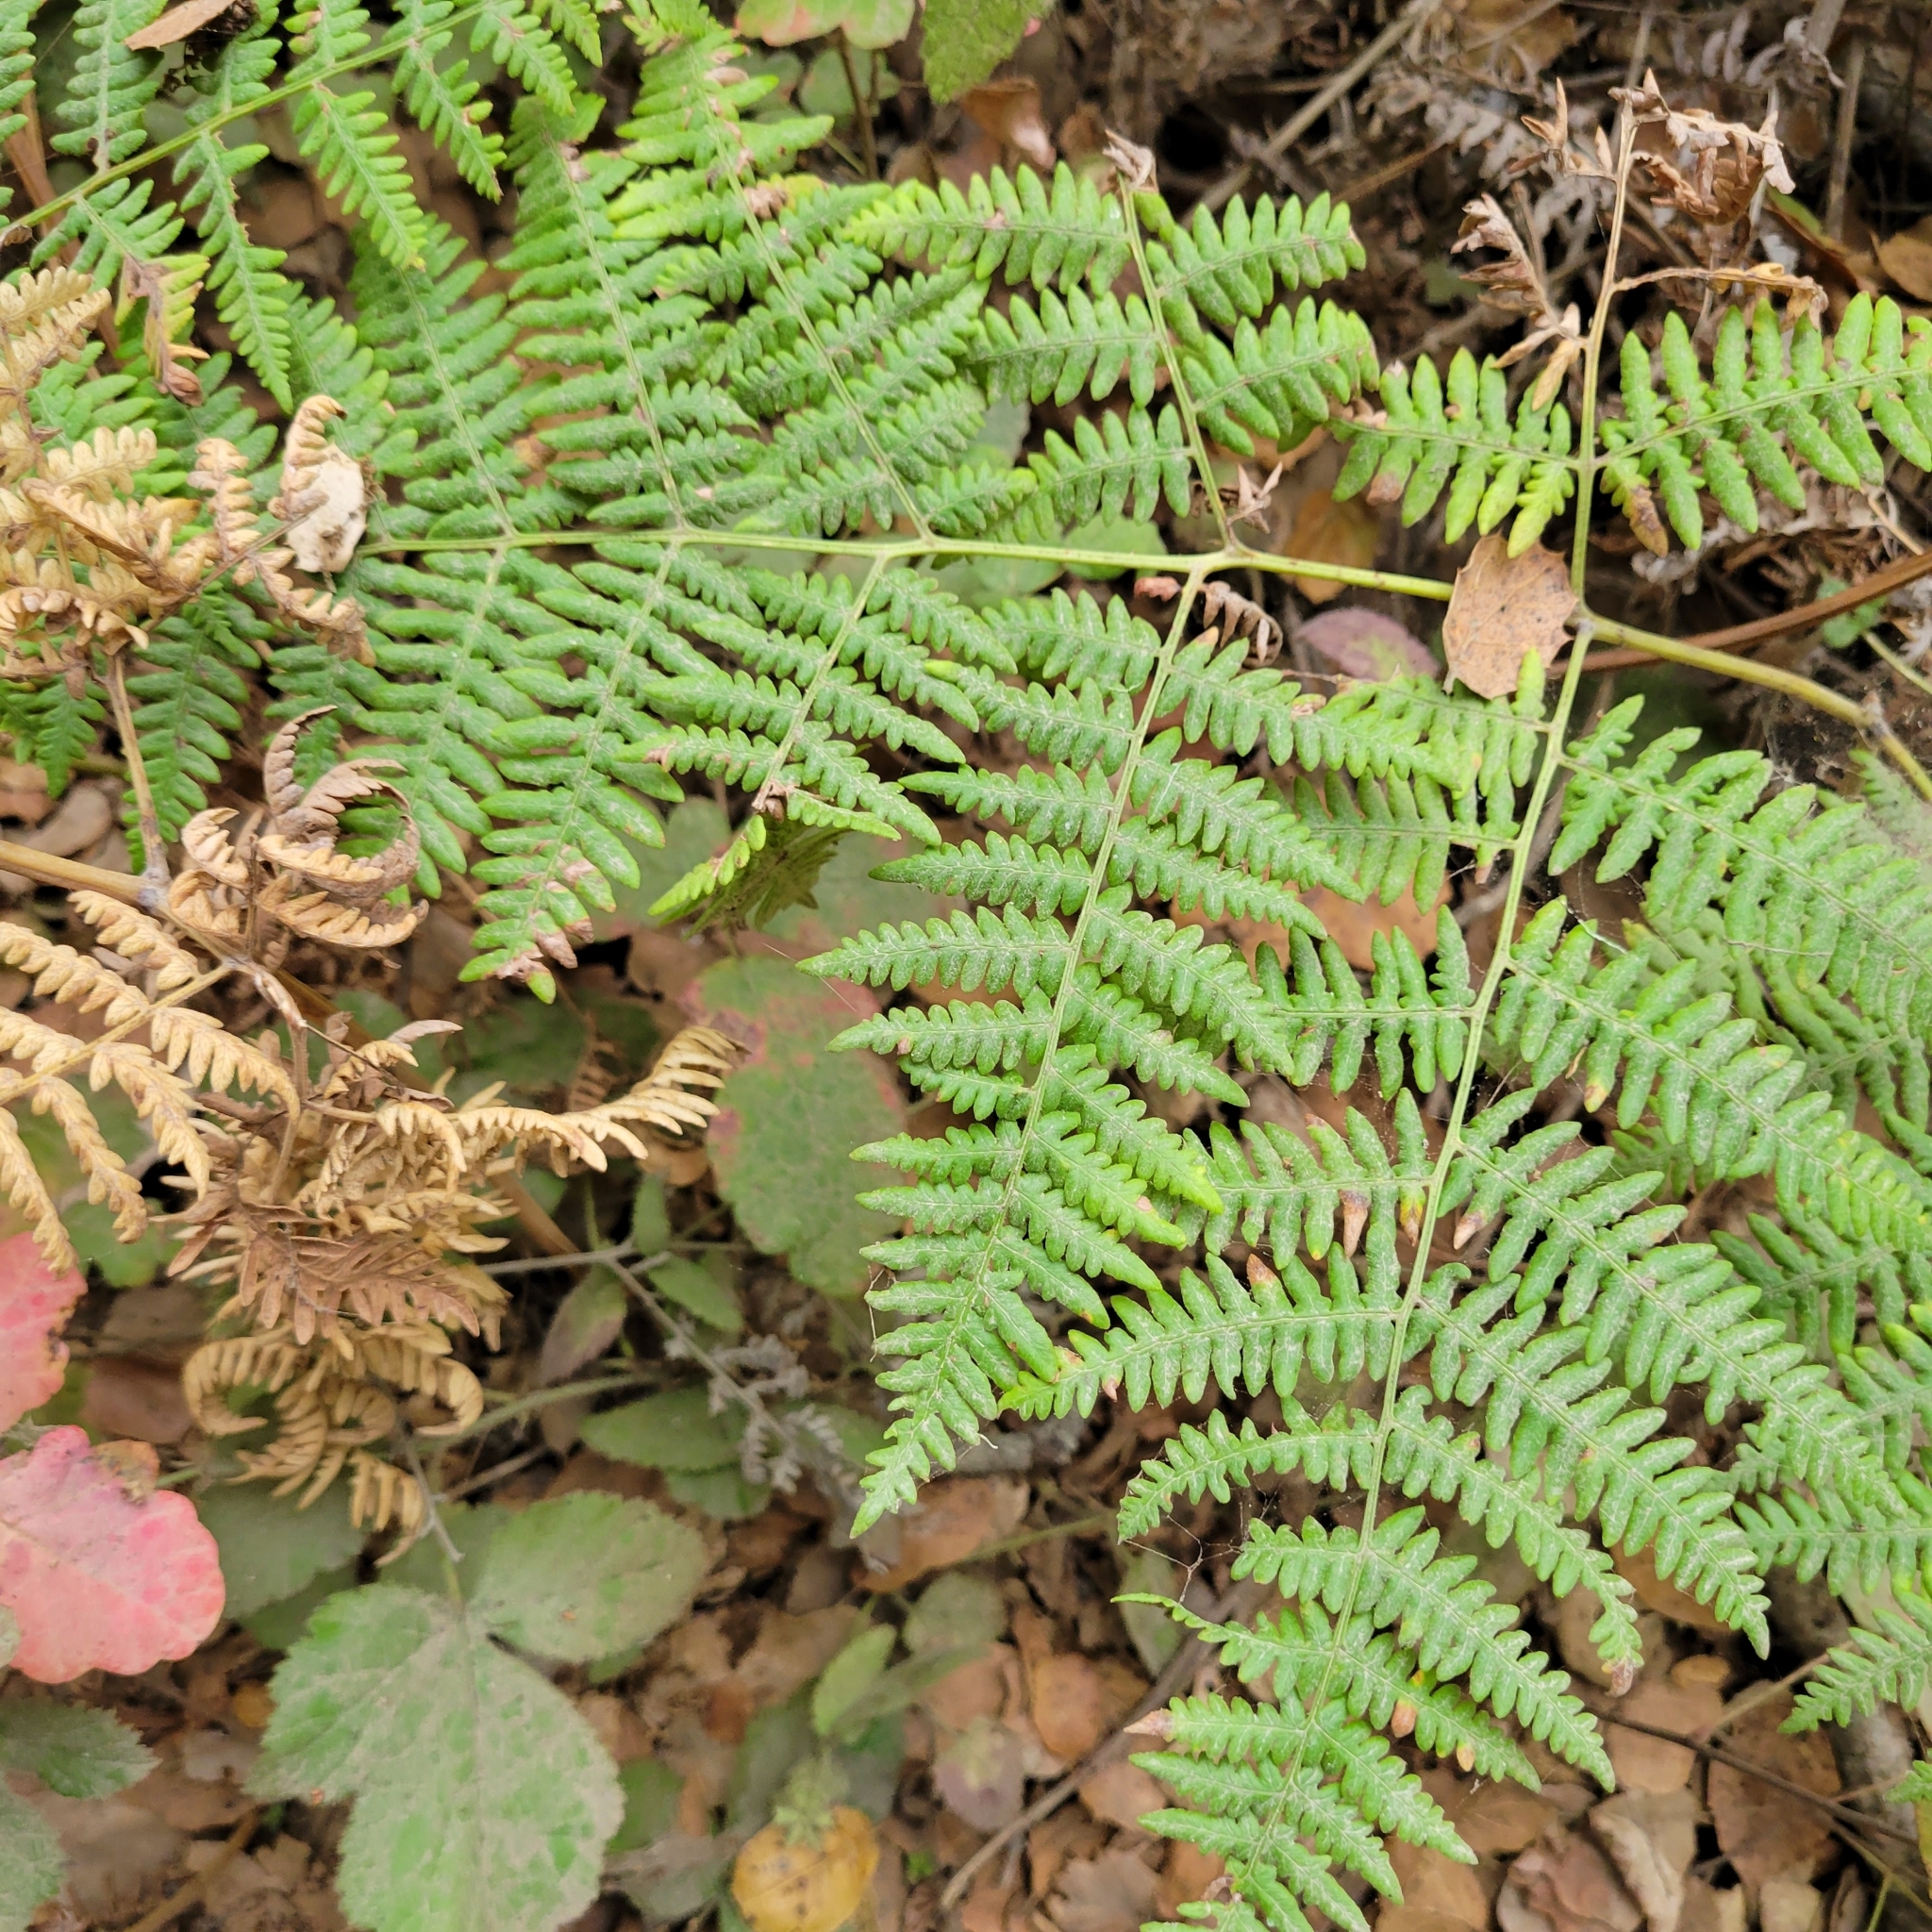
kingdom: Plantae
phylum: Tracheophyta
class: Polypodiopsida
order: Polypodiales
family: Dennstaedtiaceae
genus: Pteridium
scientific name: Pteridium aquilinum
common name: Bracken
